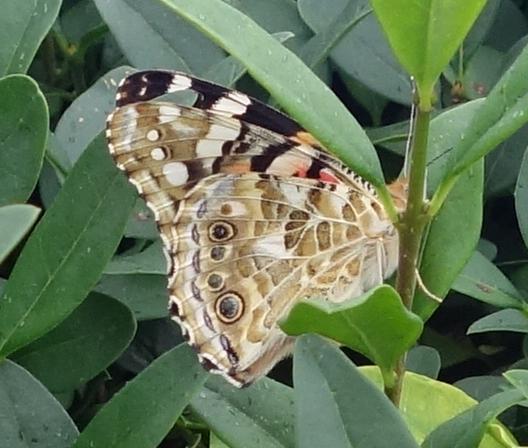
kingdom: Animalia
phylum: Arthropoda
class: Insecta
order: Lepidoptera
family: Nymphalidae
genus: Vanessa
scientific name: Vanessa cardui
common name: Painted lady
